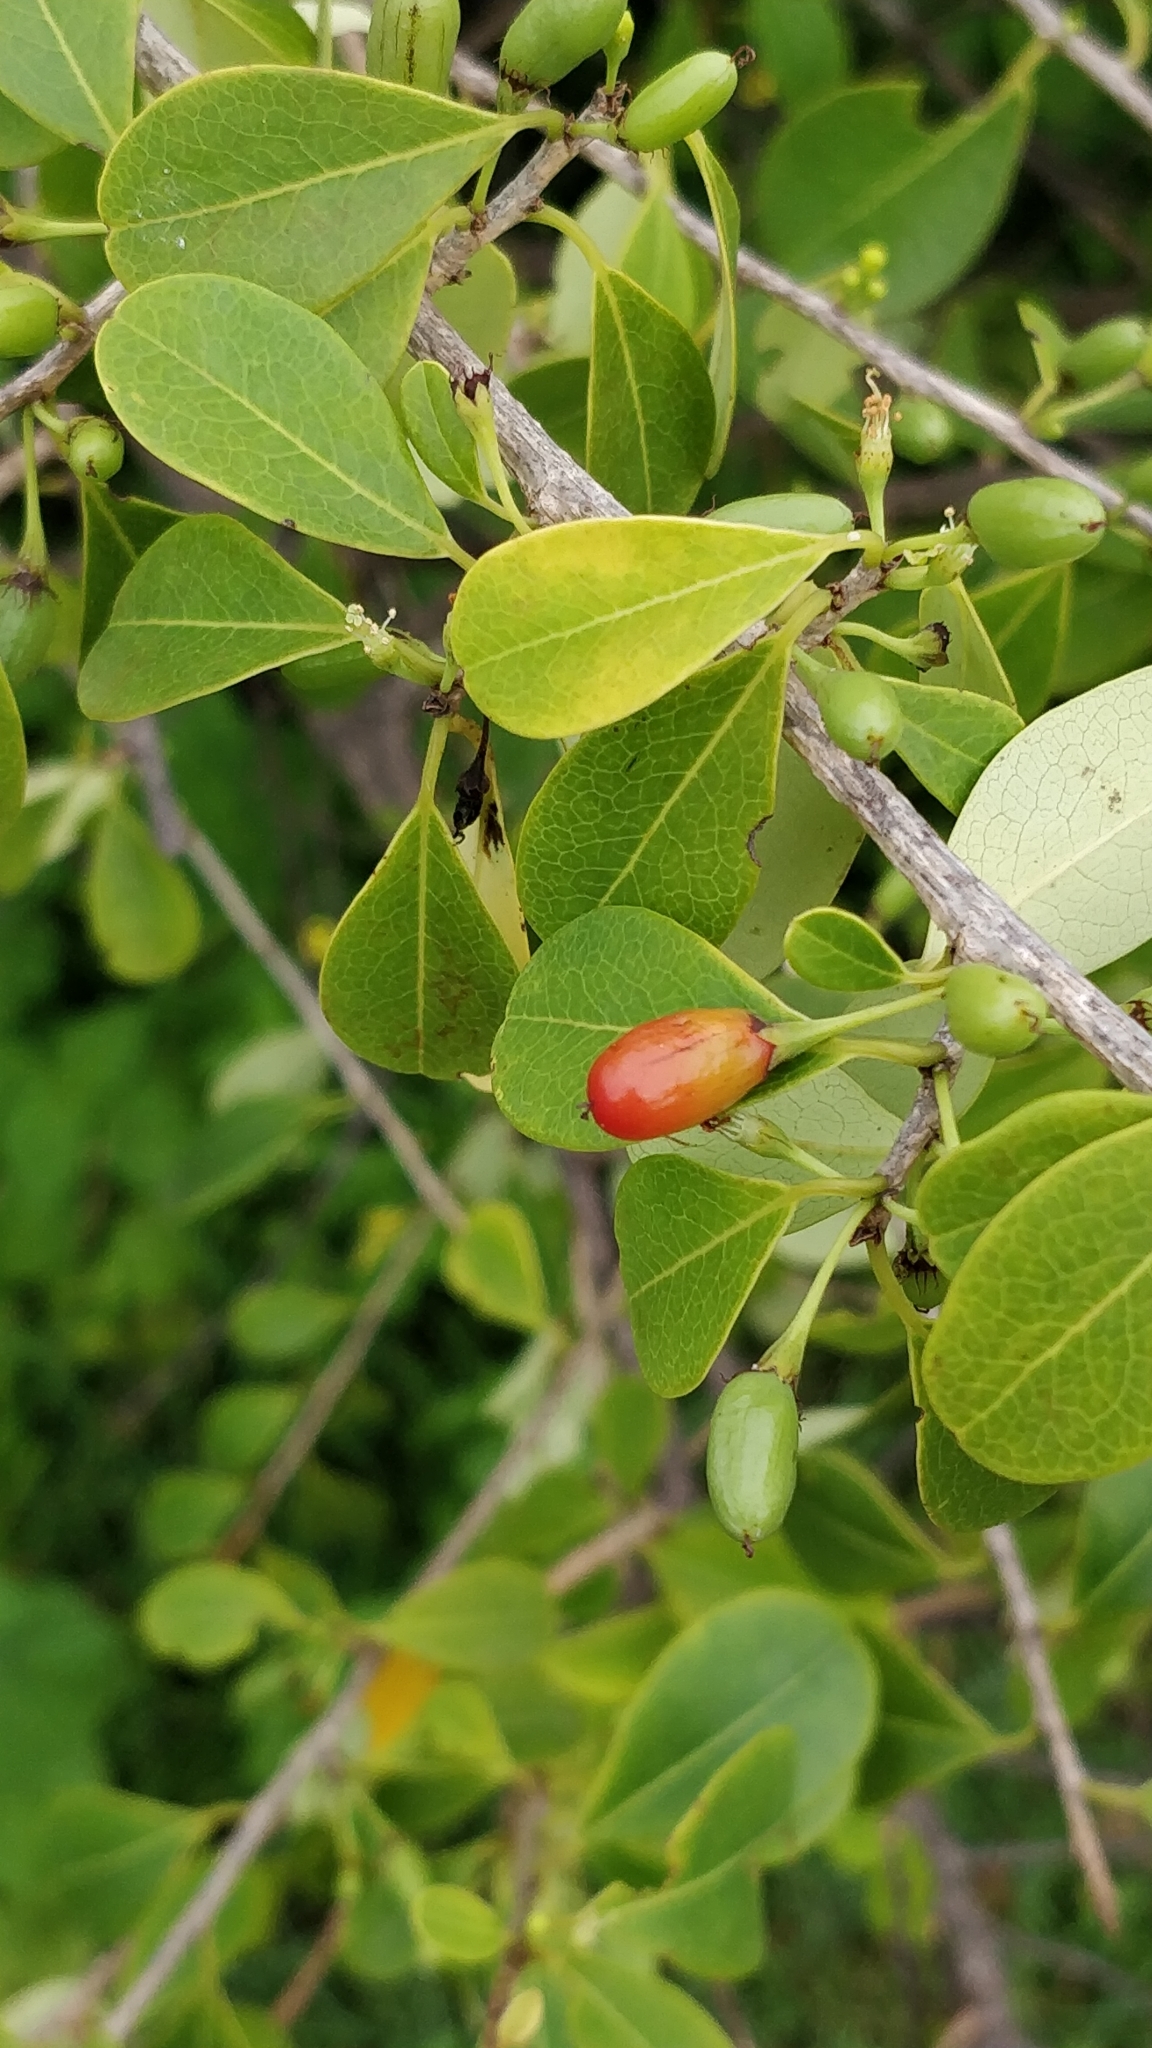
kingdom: Plantae
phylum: Tracheophyta
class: Magnoliopsida
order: Malpighiales
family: Erythroxylaceae
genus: Erythroxylum
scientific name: Erythroxylum monogynum
